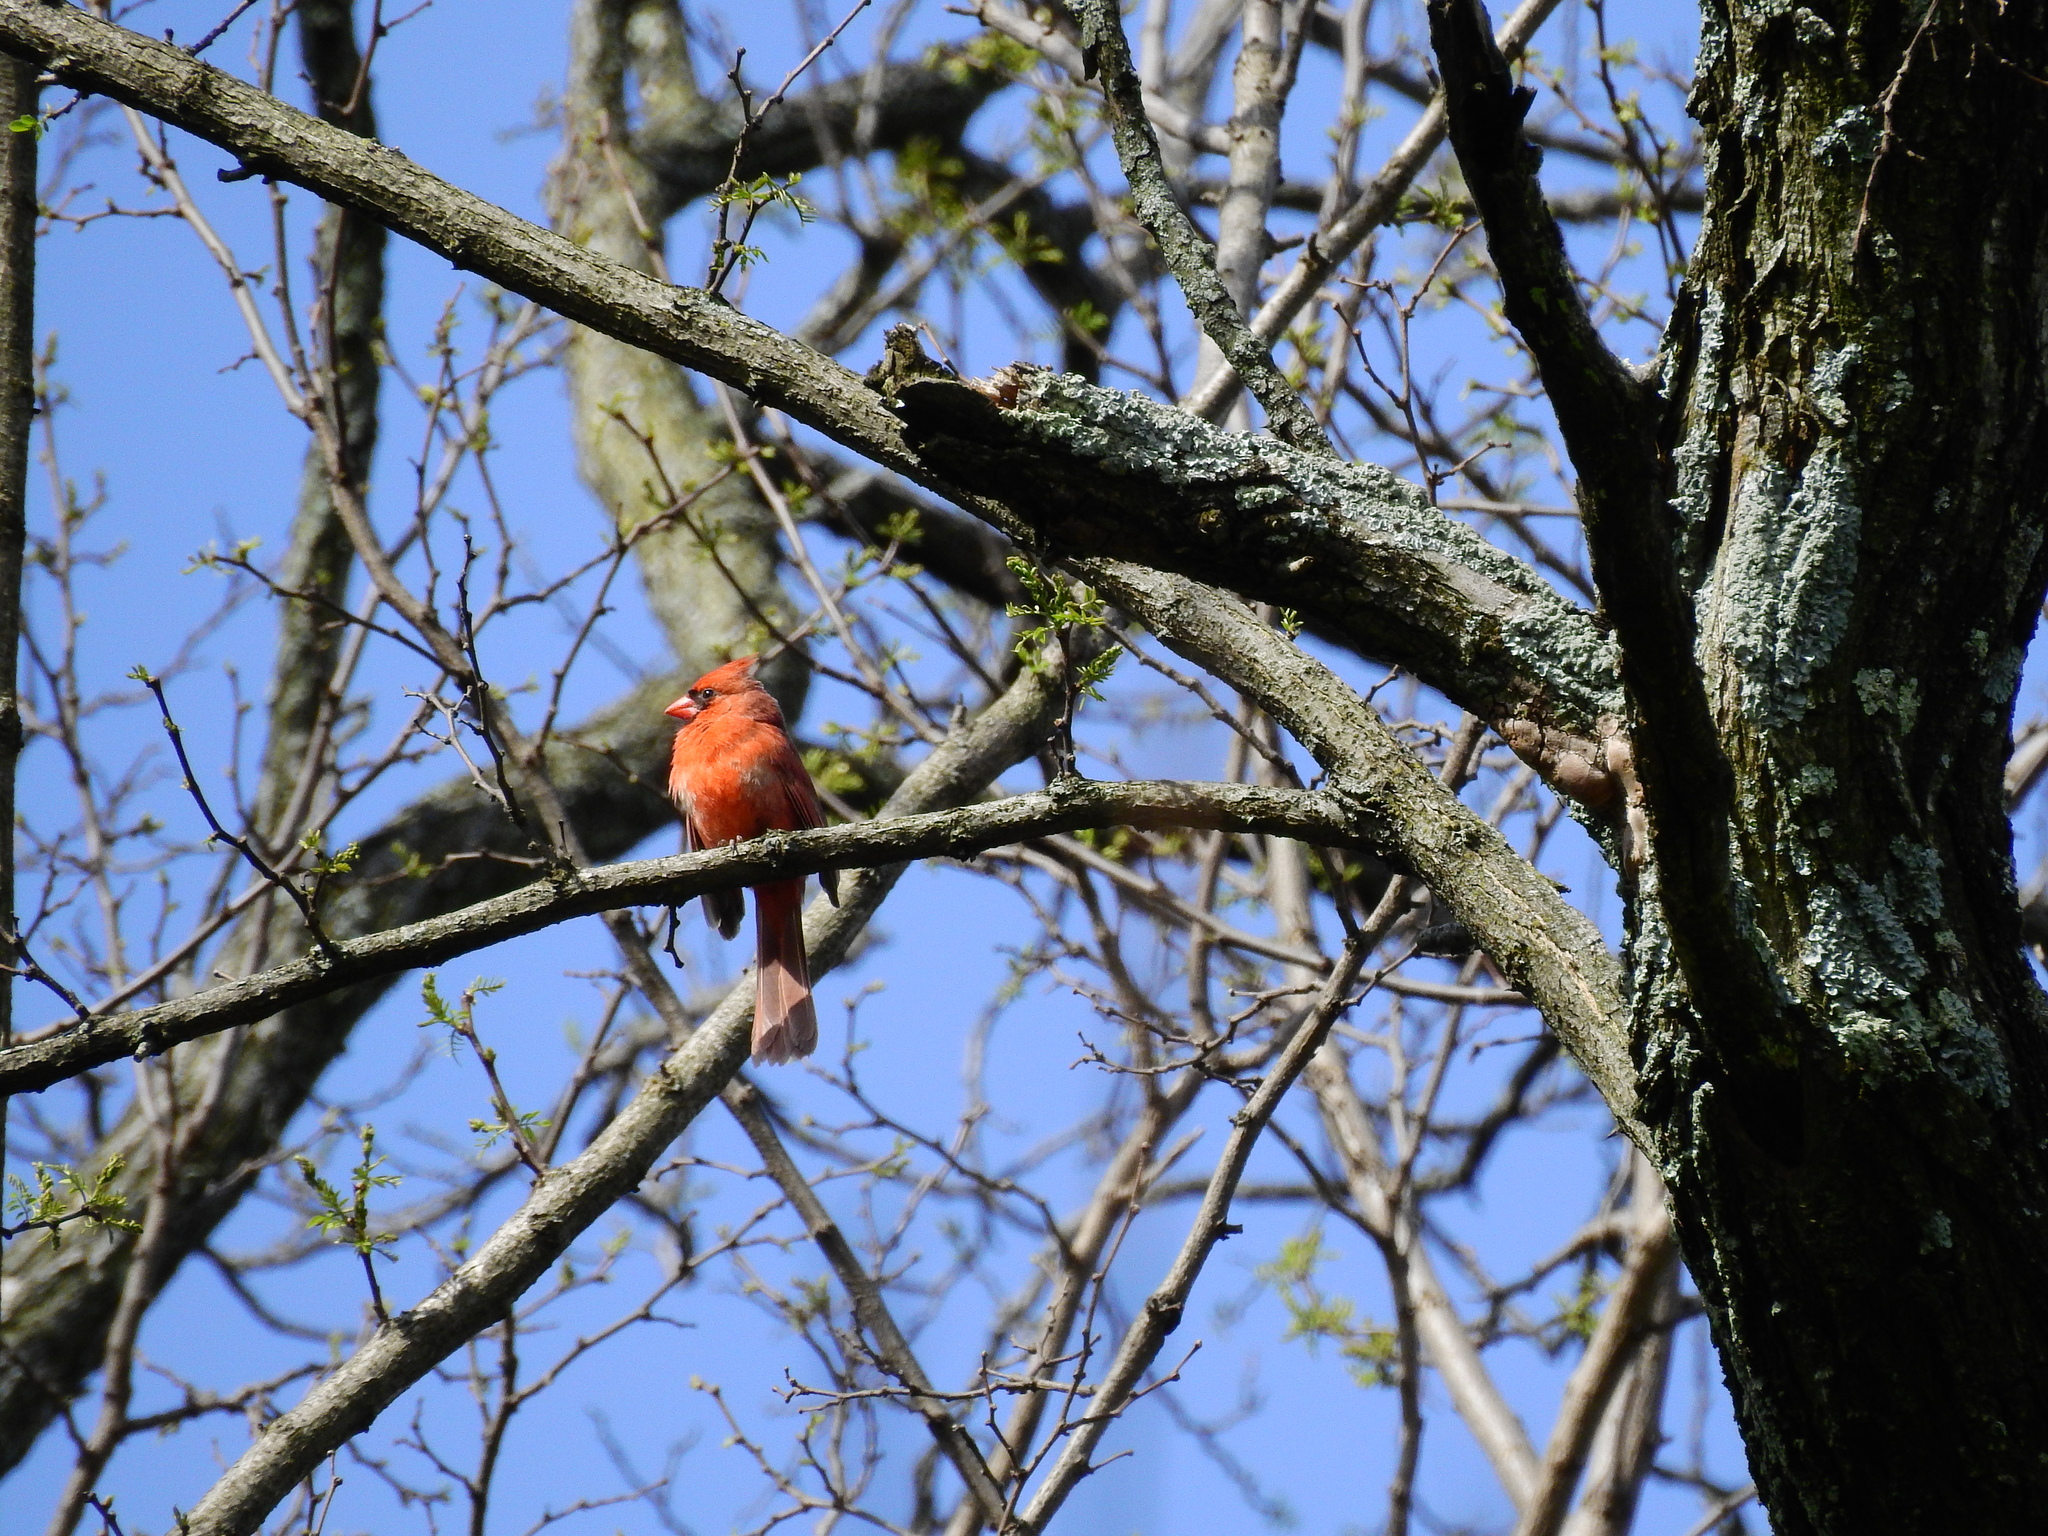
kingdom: Animalia
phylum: Chordata
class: Aves
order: Passeriformes
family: Cardinalidae
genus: Cardinalis
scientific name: Cardinalis cardinalis
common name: Northern cardinal
